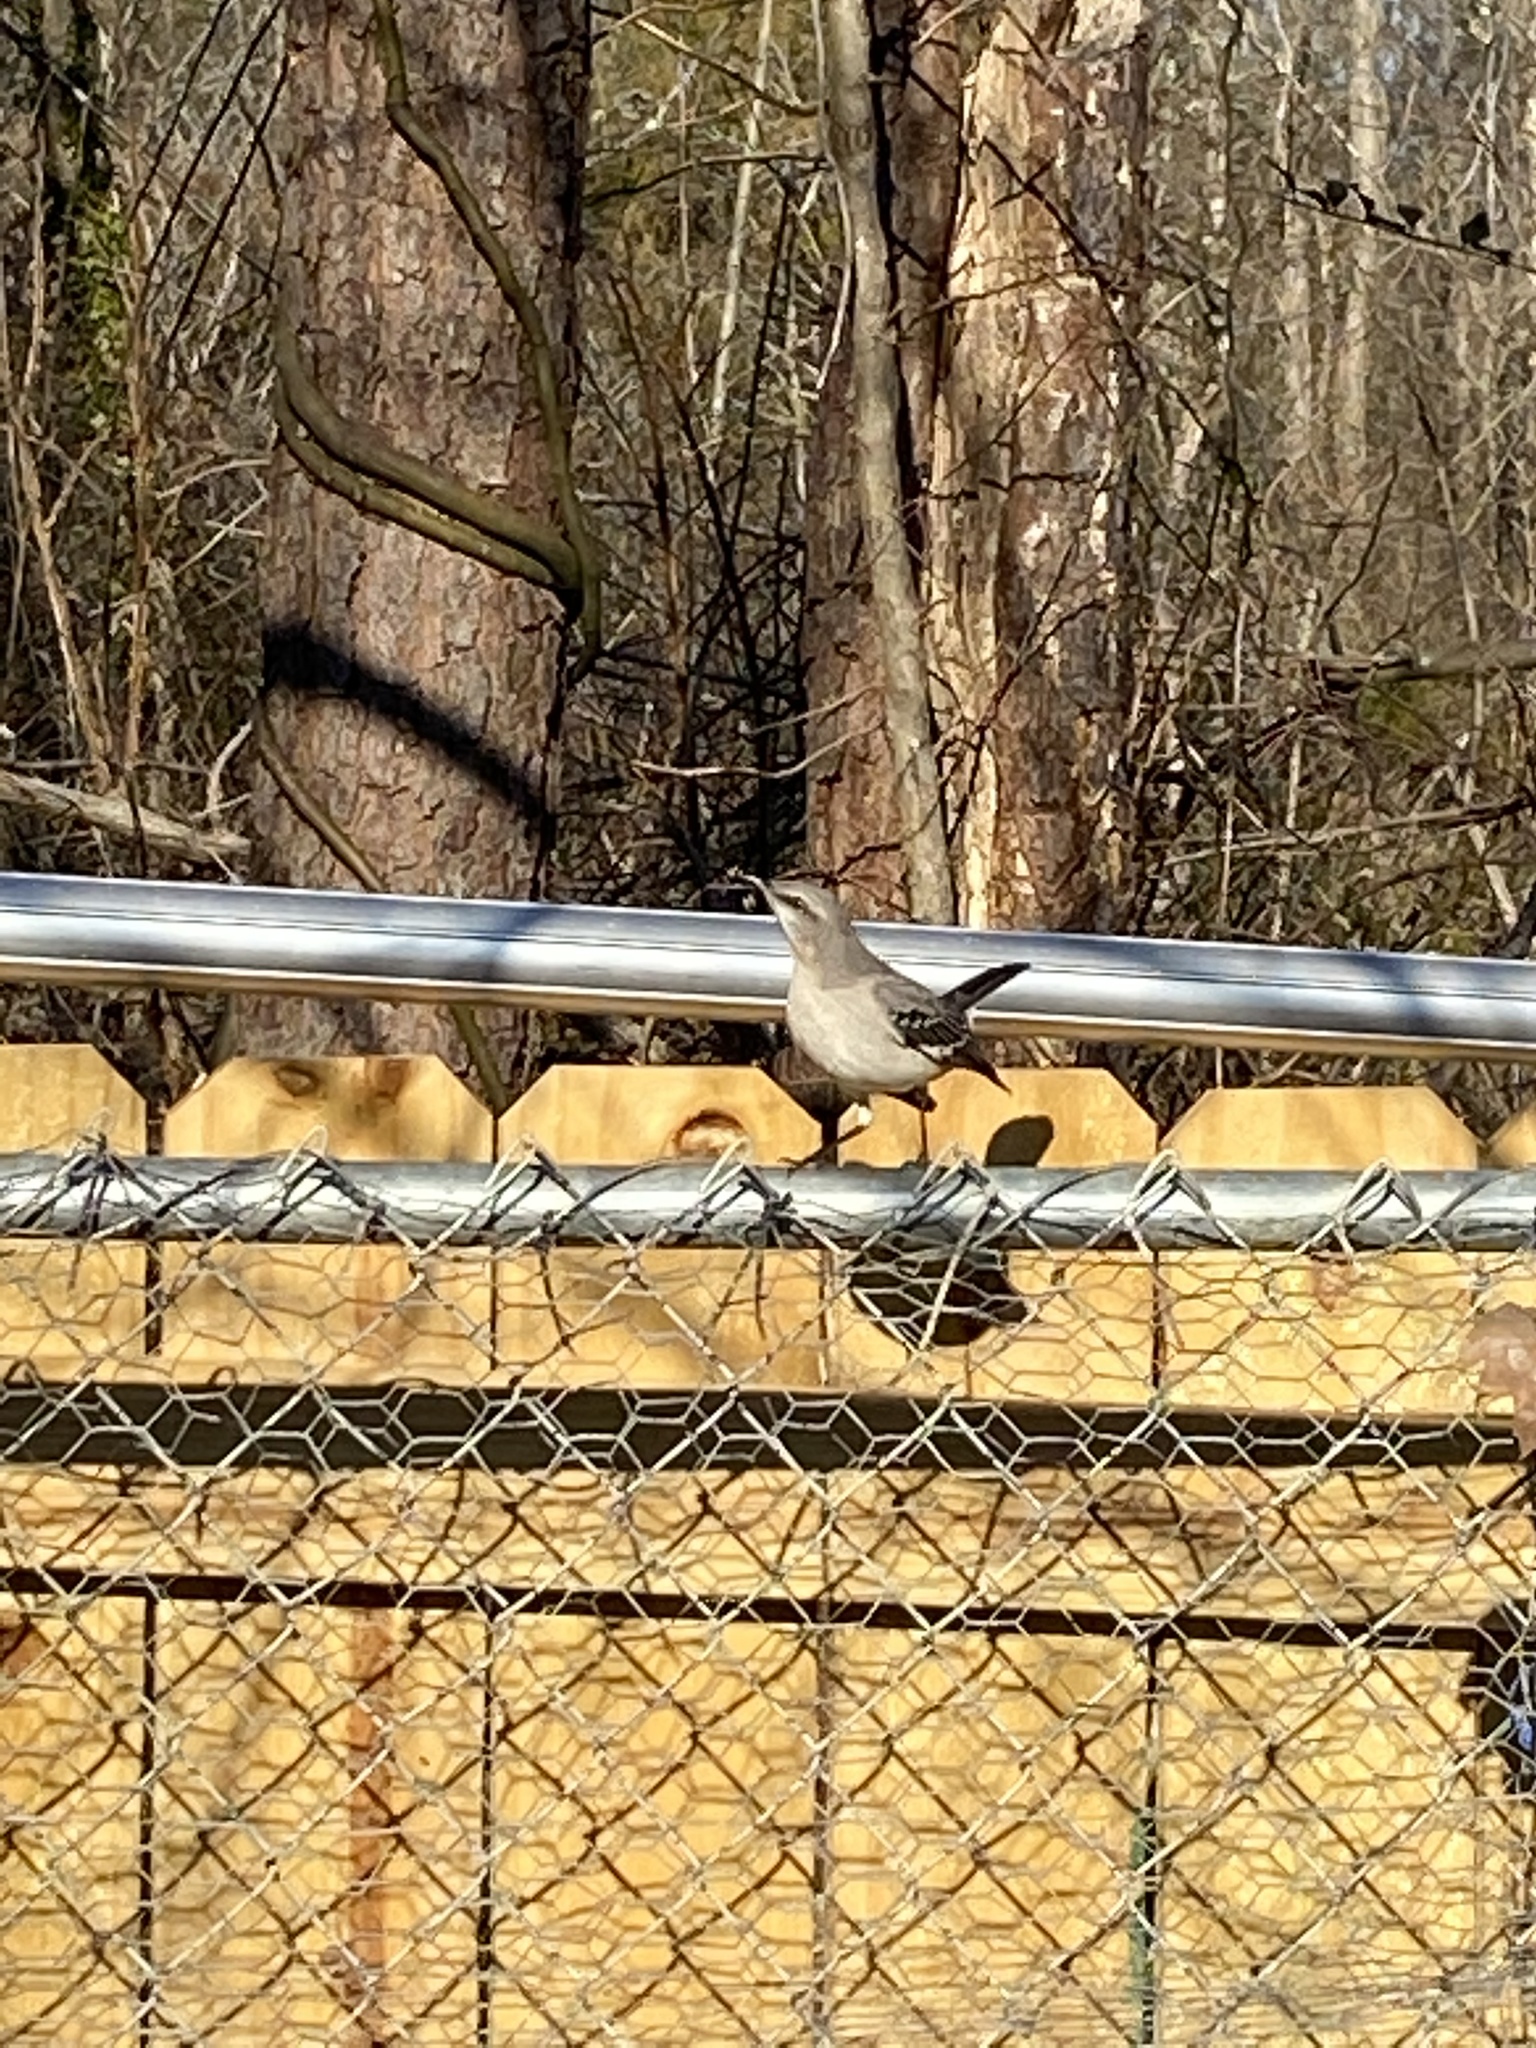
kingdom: Animalia
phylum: Chordata
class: Aves
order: Passeriformes
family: Mimidae
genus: Mimus
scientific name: Mimus polyglottos
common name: Northern mockingbird
